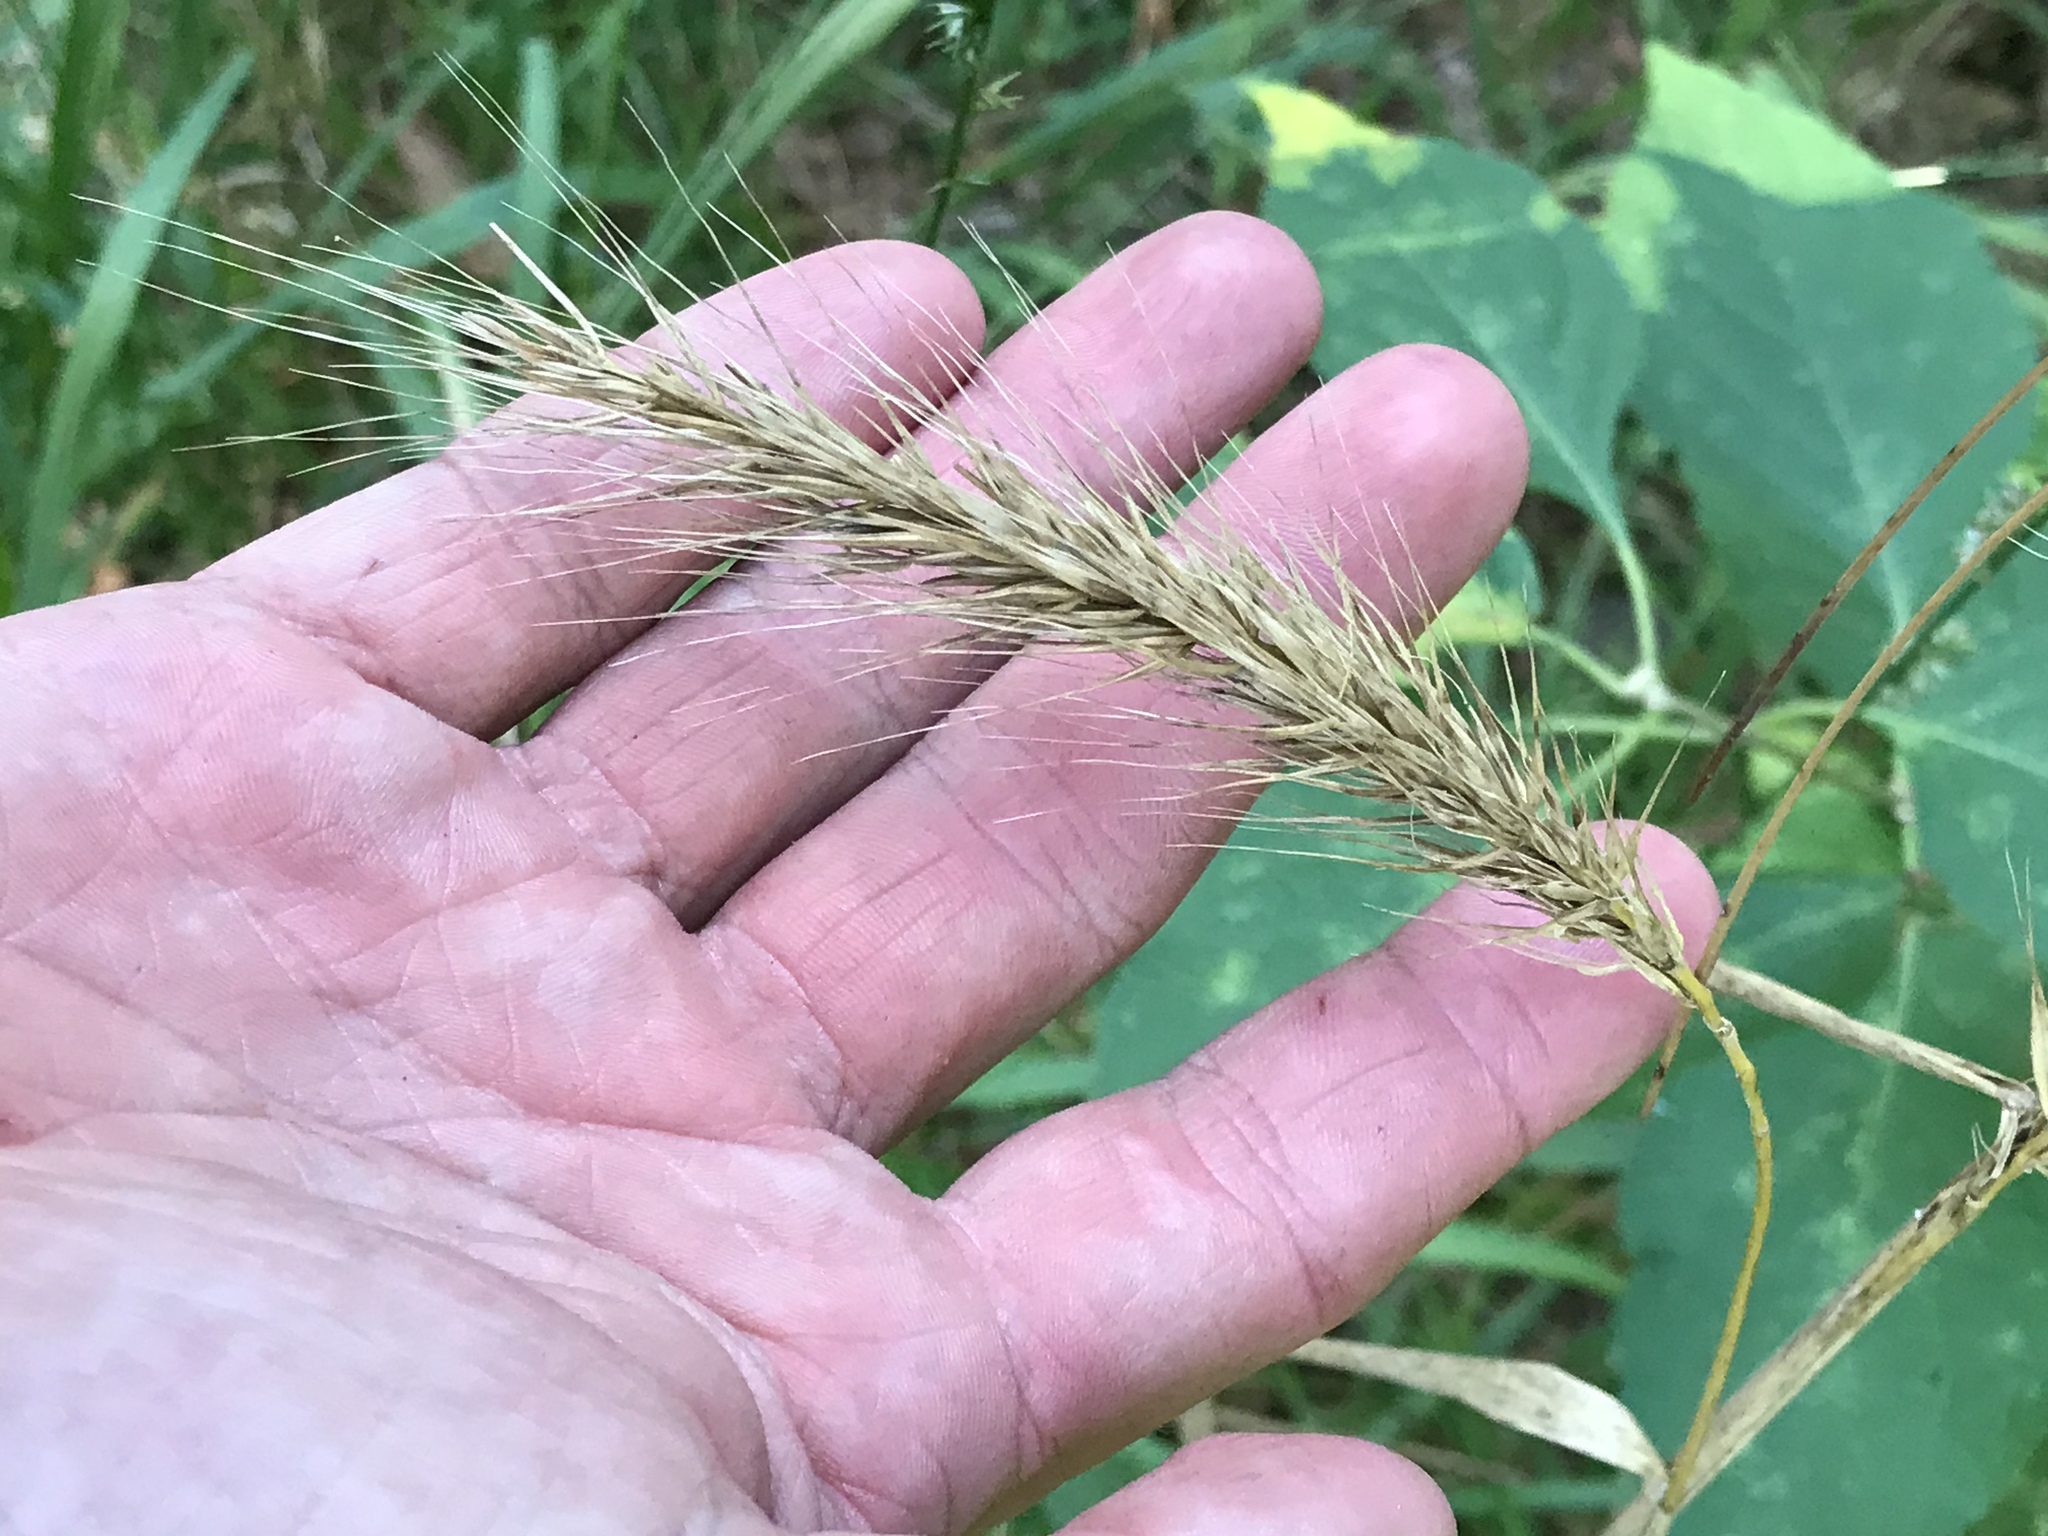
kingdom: Plantae
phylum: Tracheophyta
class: Liliopsida
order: Poales
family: Poaceae
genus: Elymus
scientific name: Elymus canadensis
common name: Canada wild rye
